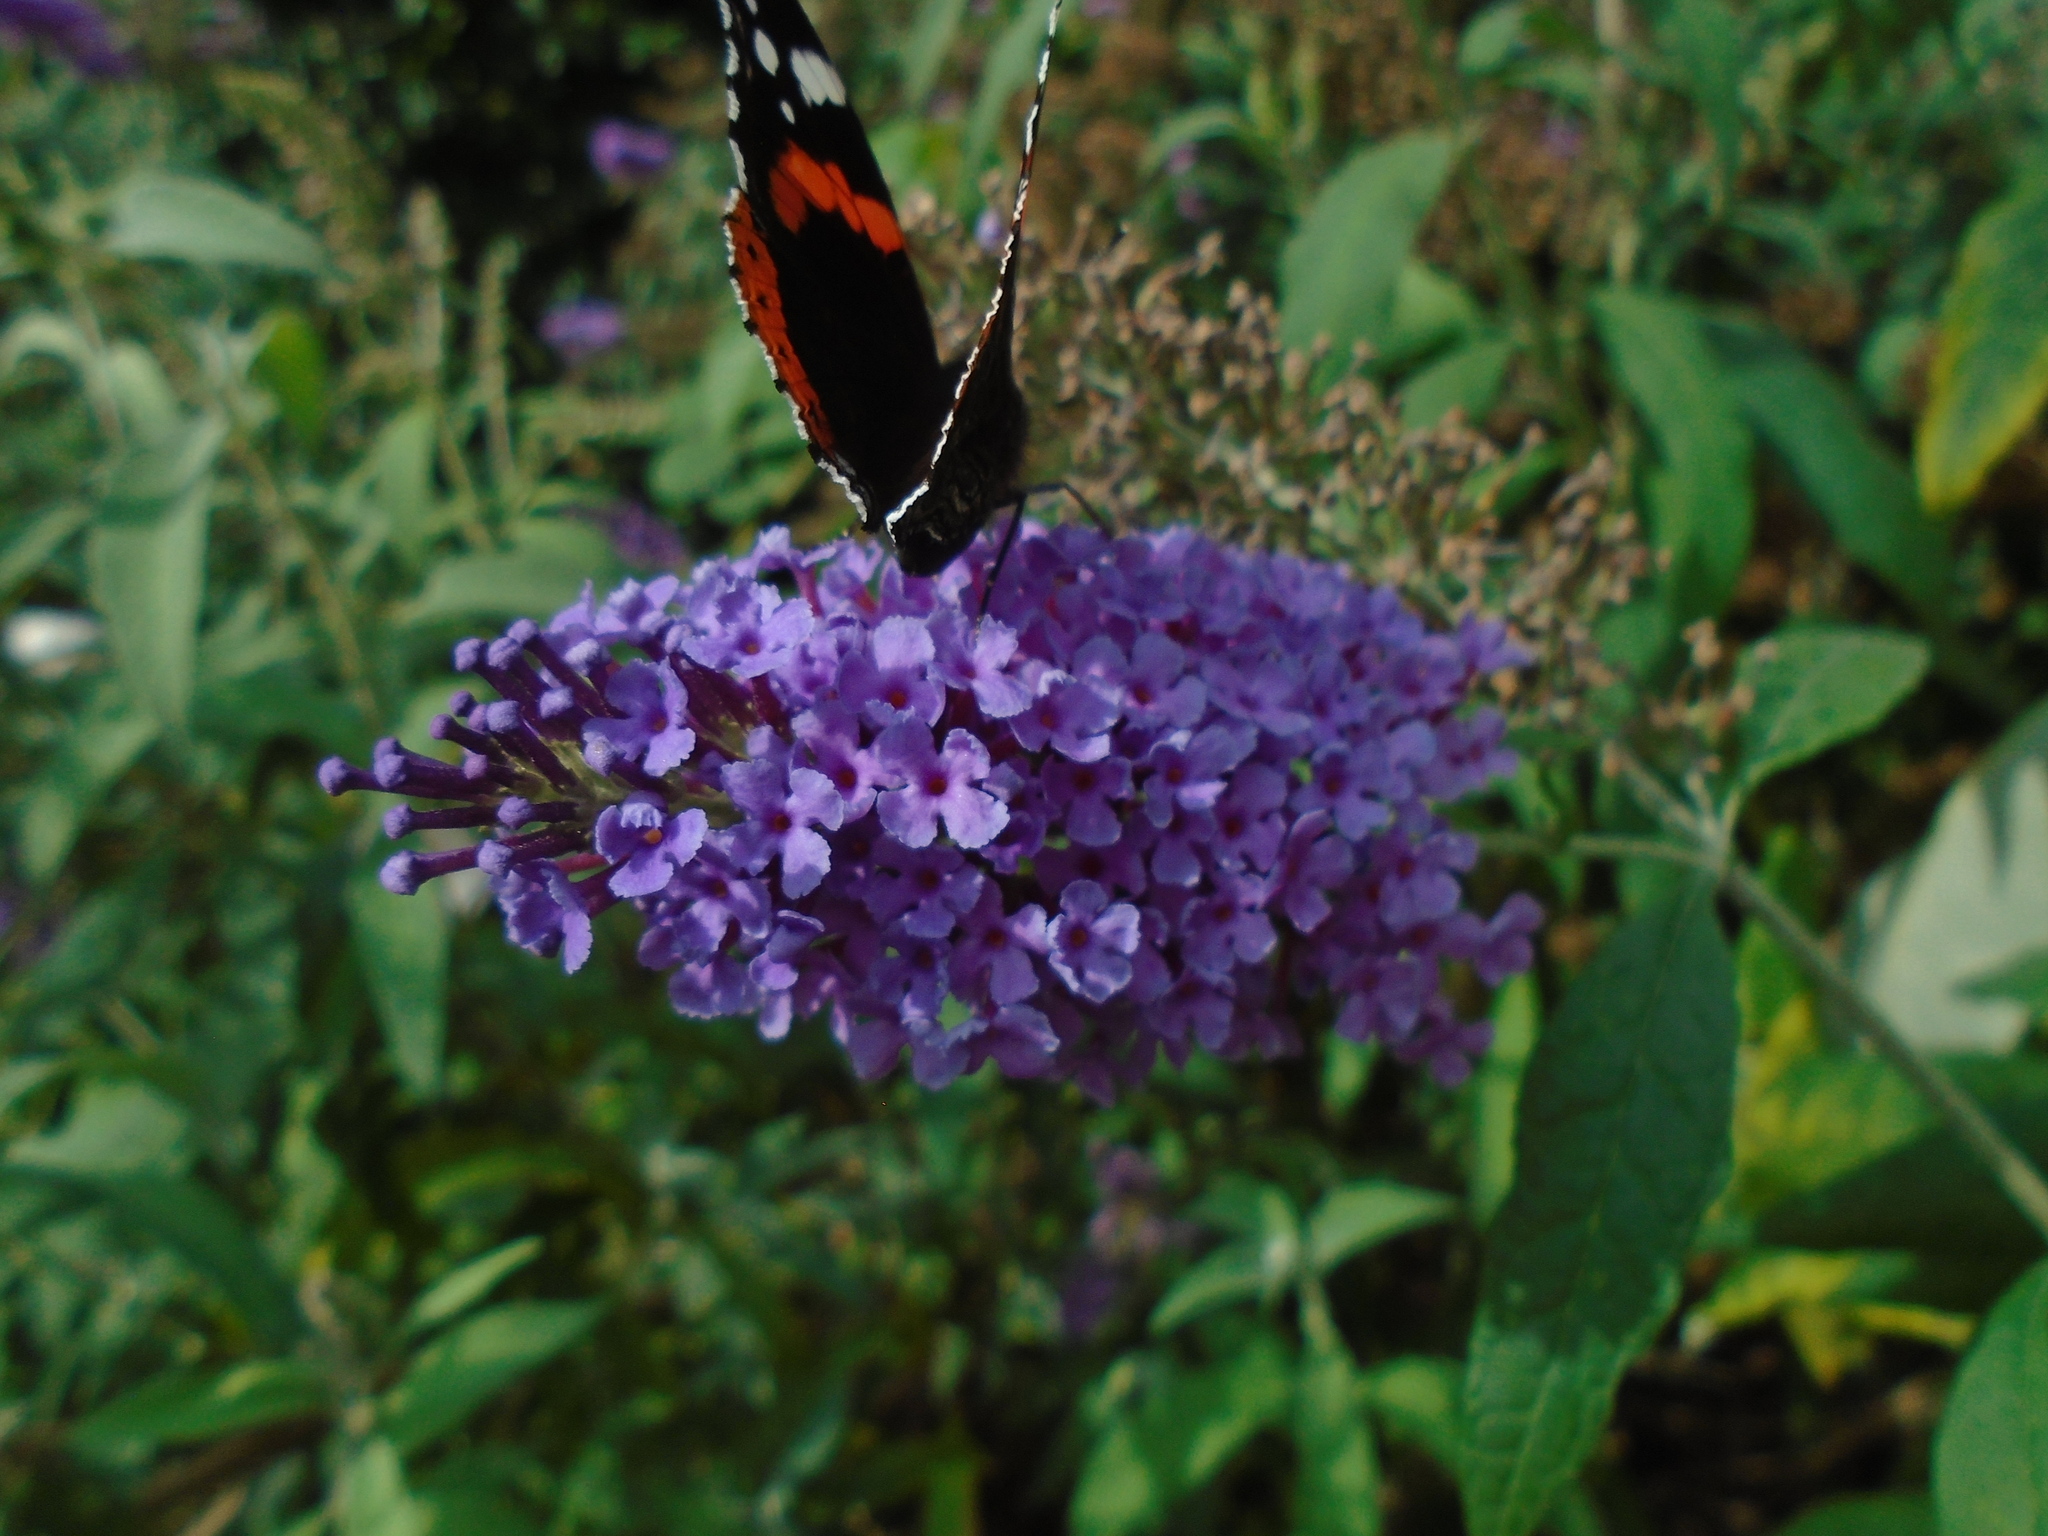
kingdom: Animalia
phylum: Arthropoda
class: Insecta
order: Lepidoptera
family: Nymphalidae
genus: Vanessa
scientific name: Vanessa atalanta
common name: Red admiral
